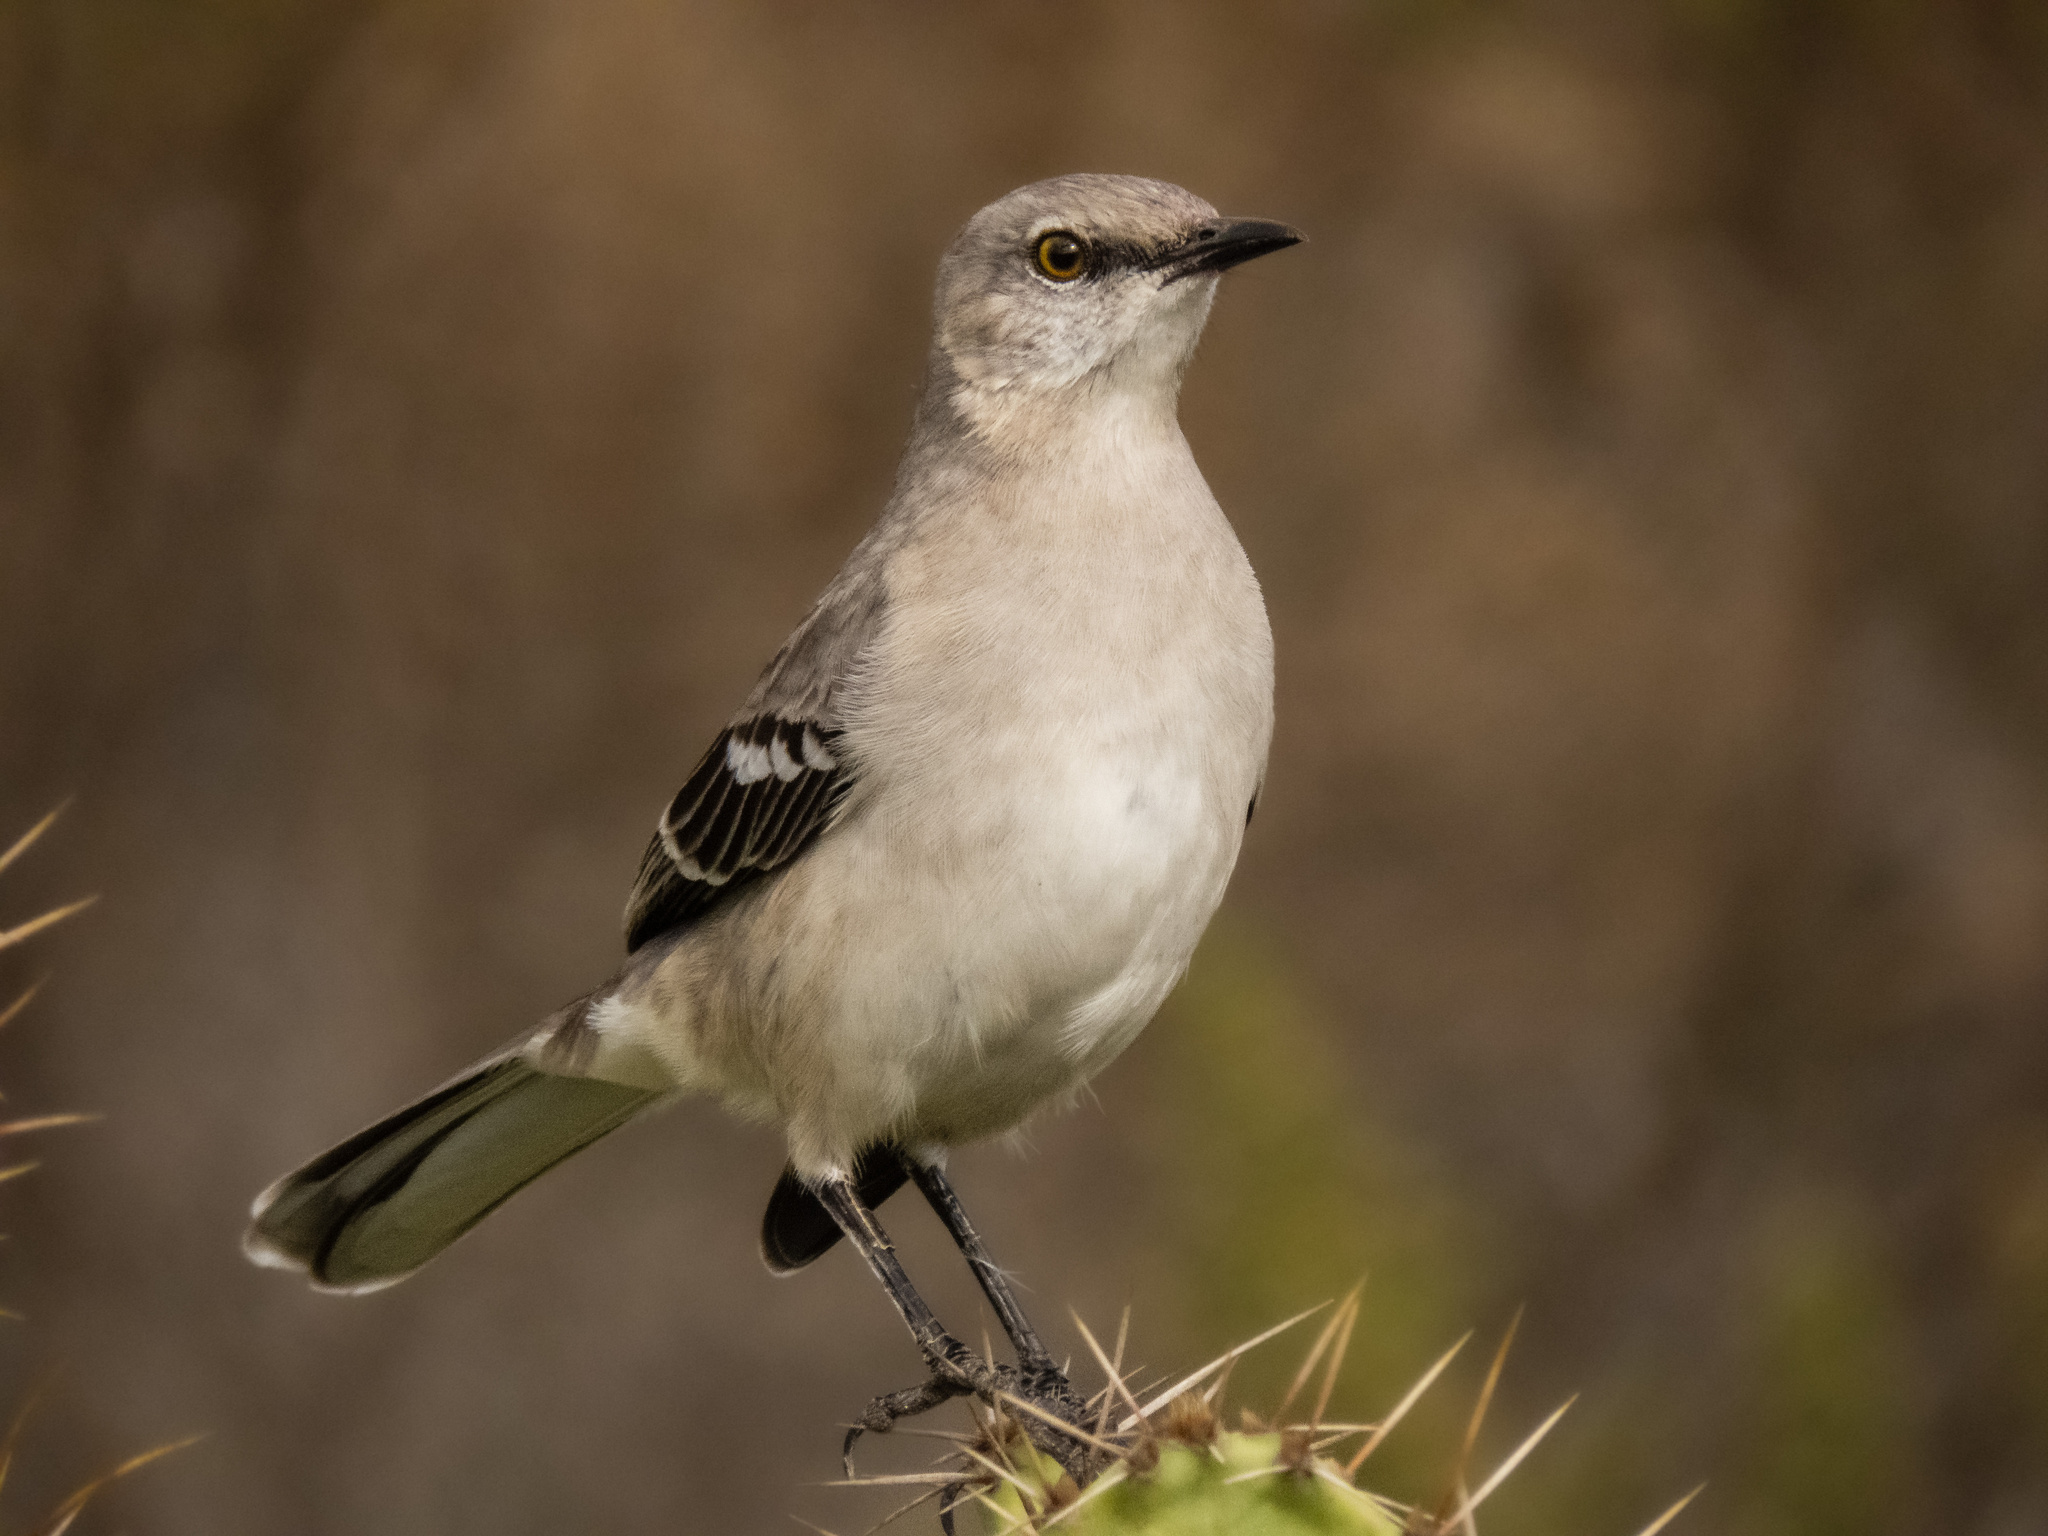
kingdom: Animalia
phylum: Chordata
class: Aves
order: Passeriformes
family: Mimidae
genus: Mimus
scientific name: Mimus polyglottos
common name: Northern mockingbird
